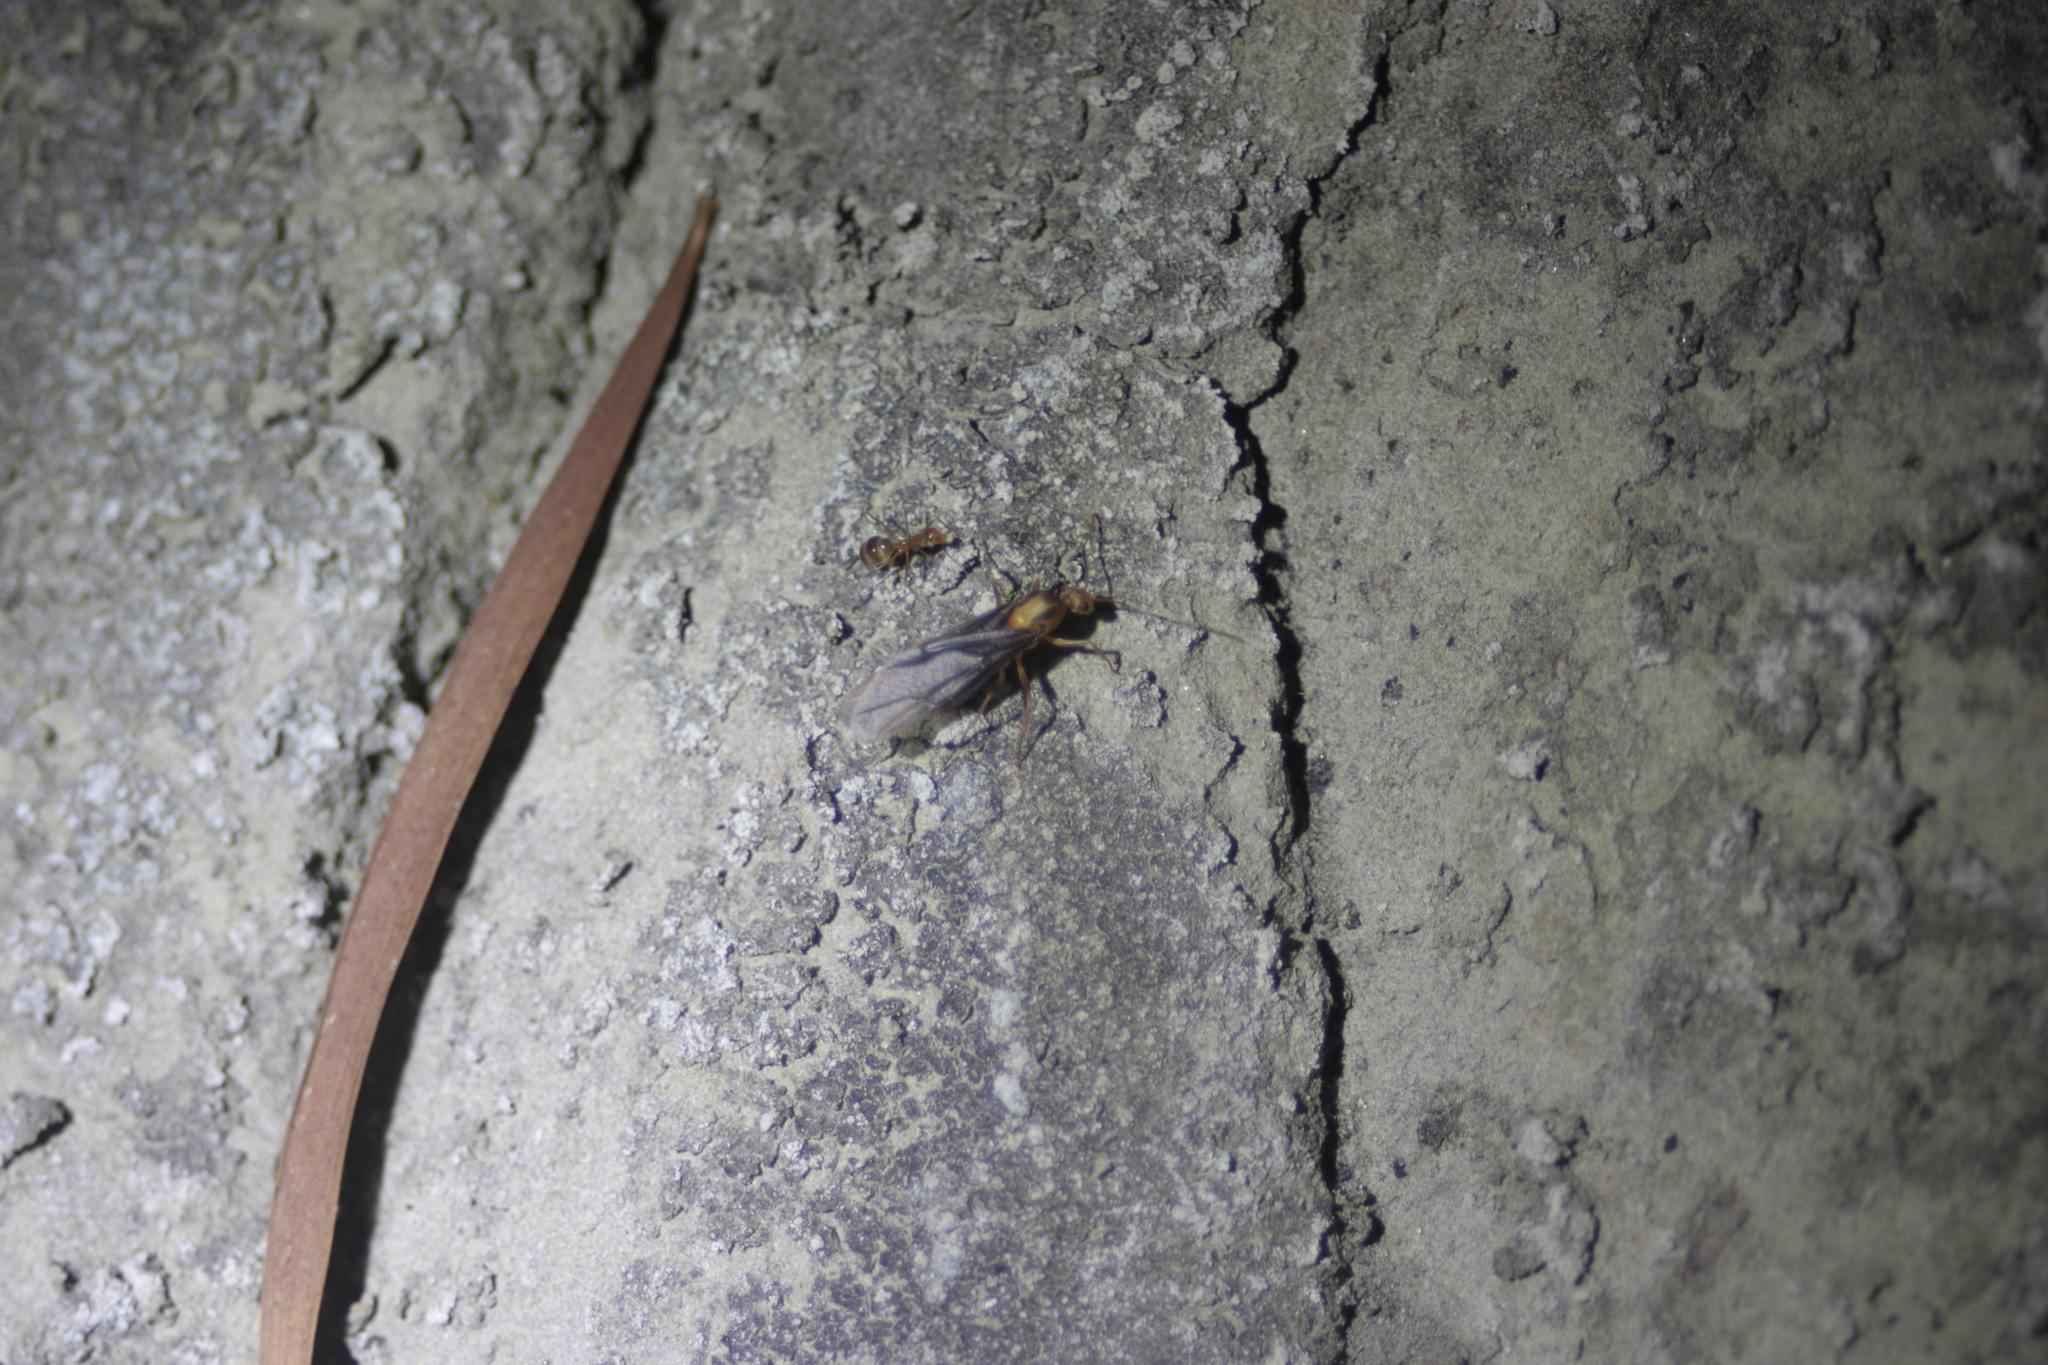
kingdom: Animalia
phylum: Arthropoda
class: Insecta
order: Hymenoptera
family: Formicidae
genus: Anoplolepis
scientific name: Anoplolepis gracilipes
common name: Ant
